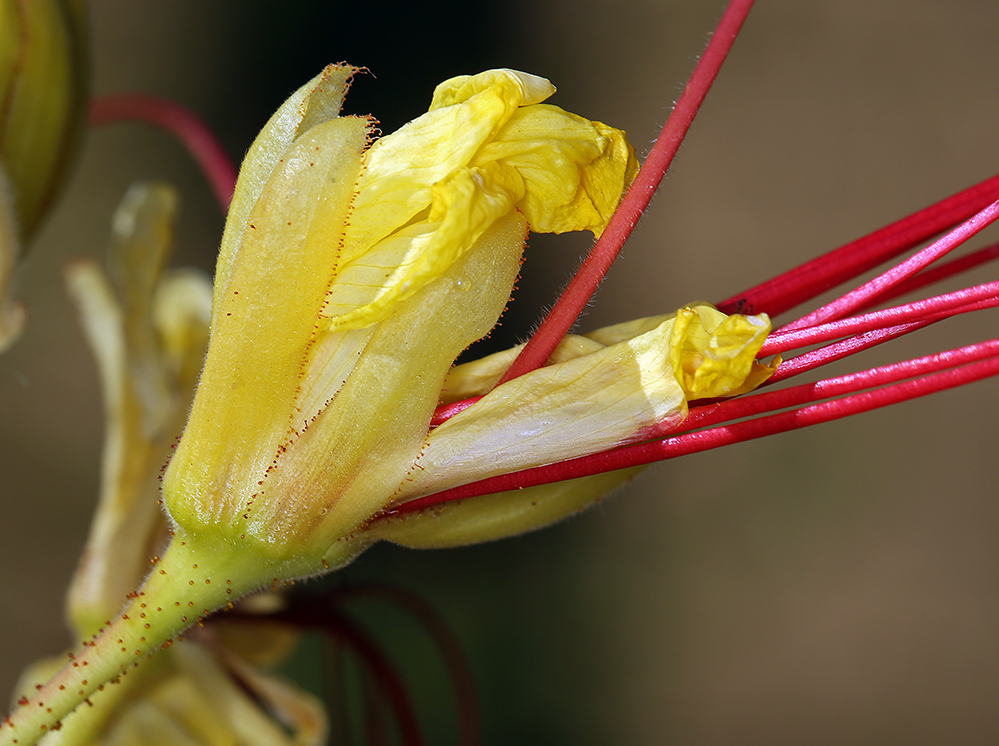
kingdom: Plantae
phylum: Tracheophyta
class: Magnoliopsida
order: Fabales
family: Fabaceae
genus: Erythrostemon
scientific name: Erythrostemon gilliesii
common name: Bird-of-paradise shrub
